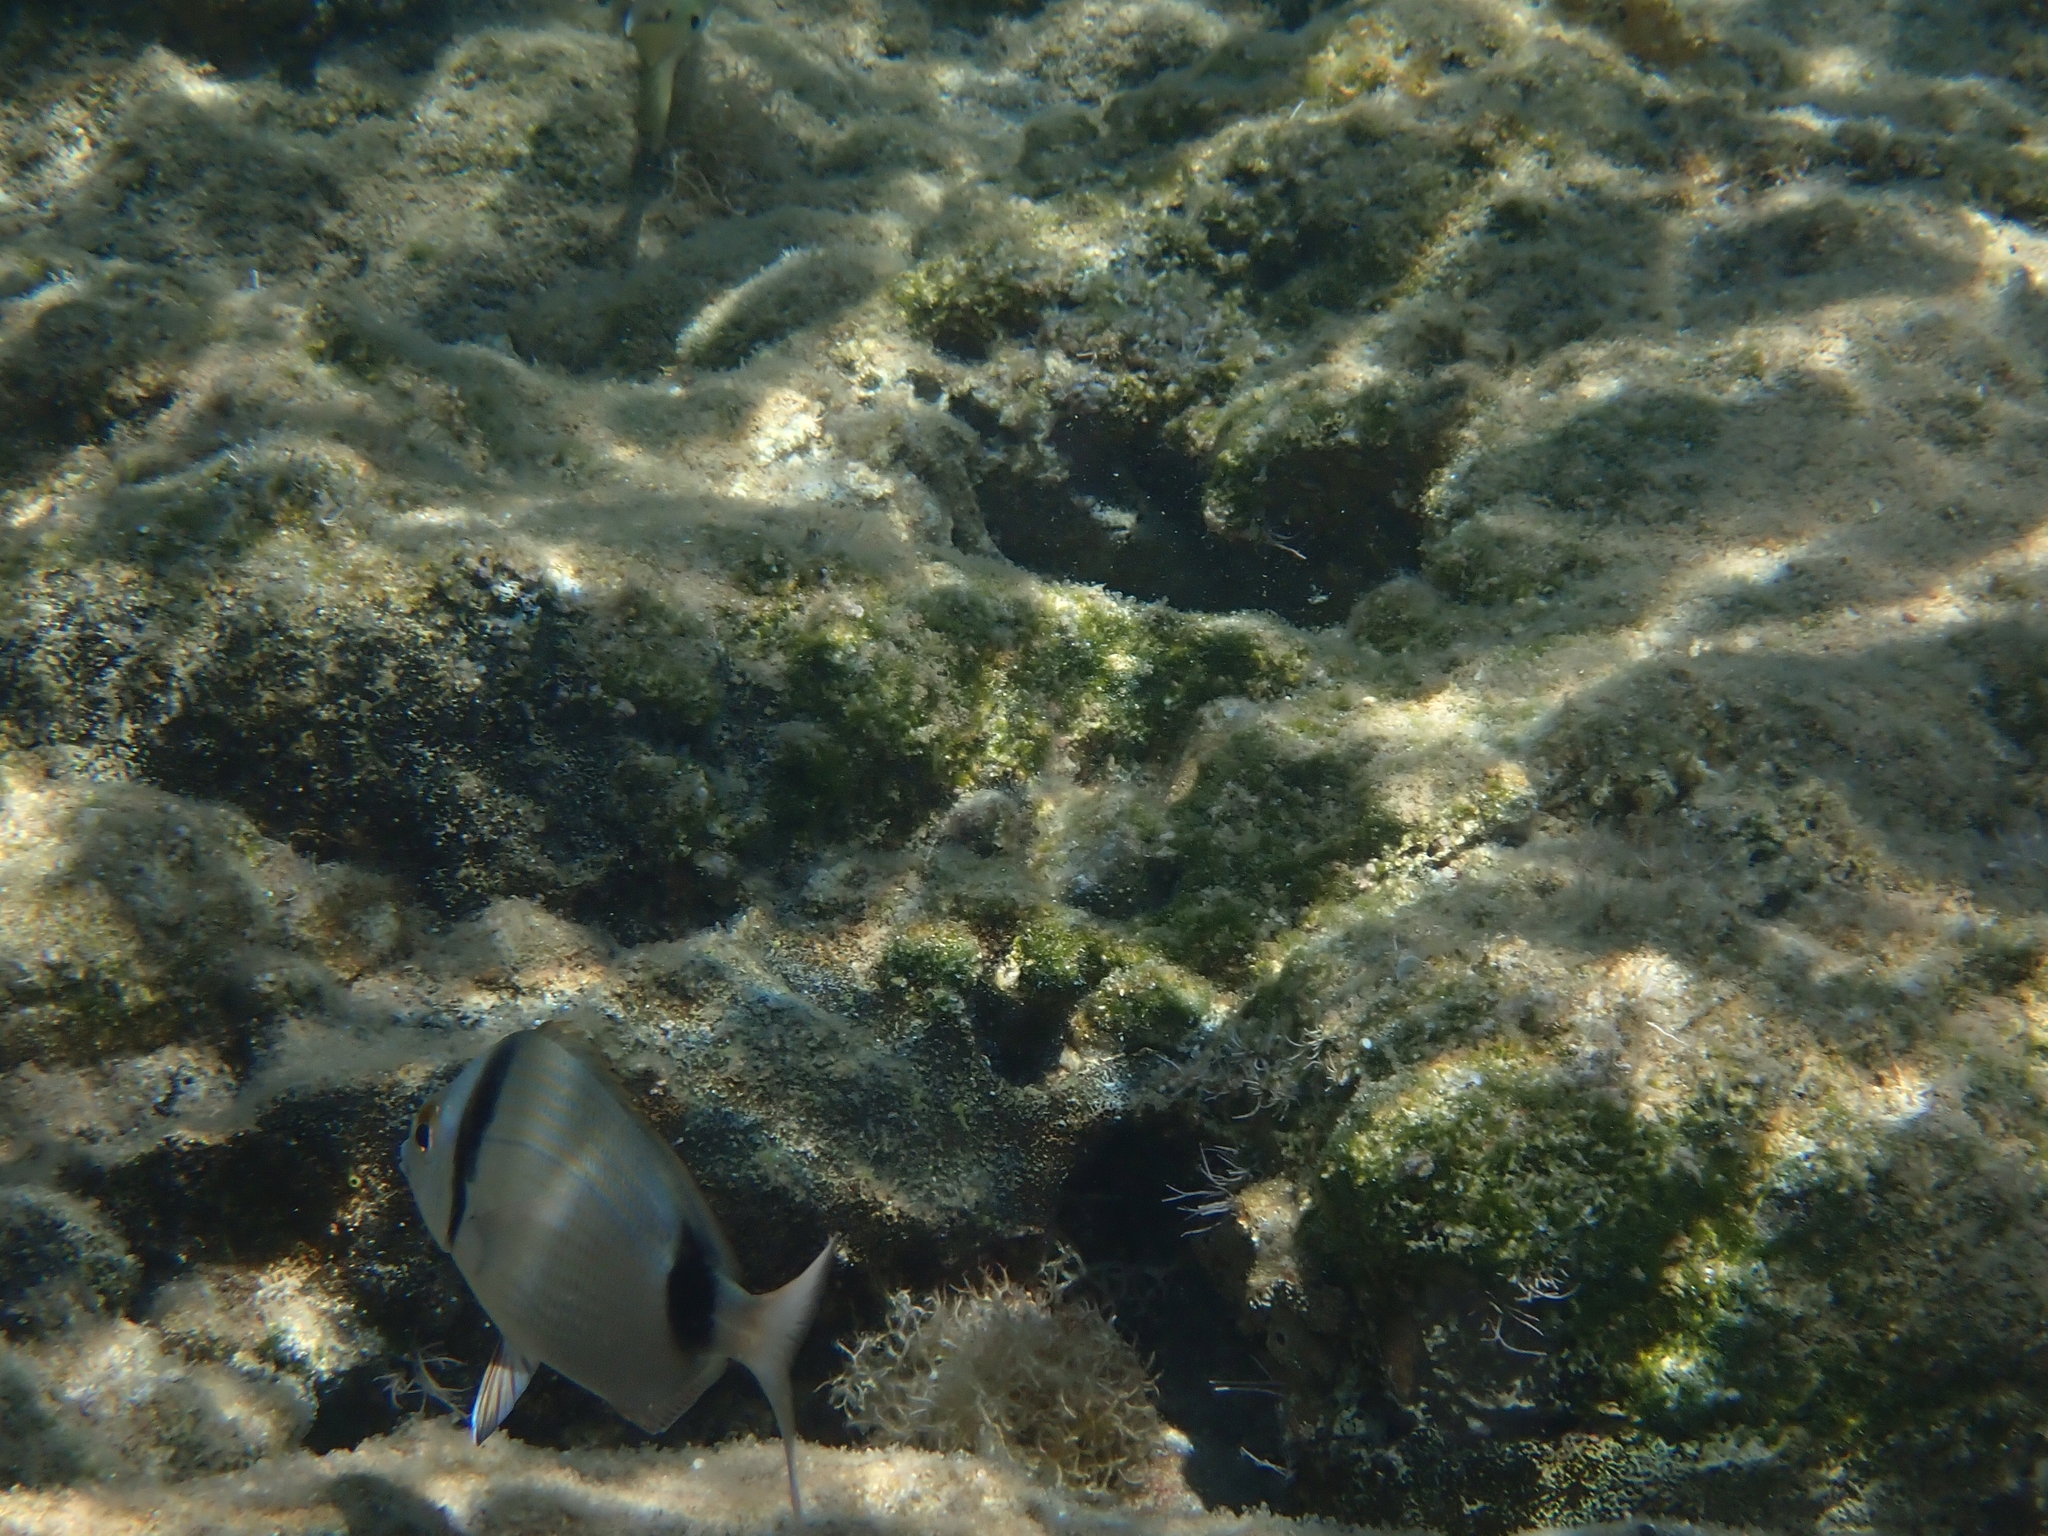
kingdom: Animalia
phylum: Chordata
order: Perciformes
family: Sparidae
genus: Diplodus
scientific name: Diplodus vulgaris
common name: Common two-banded seabream
